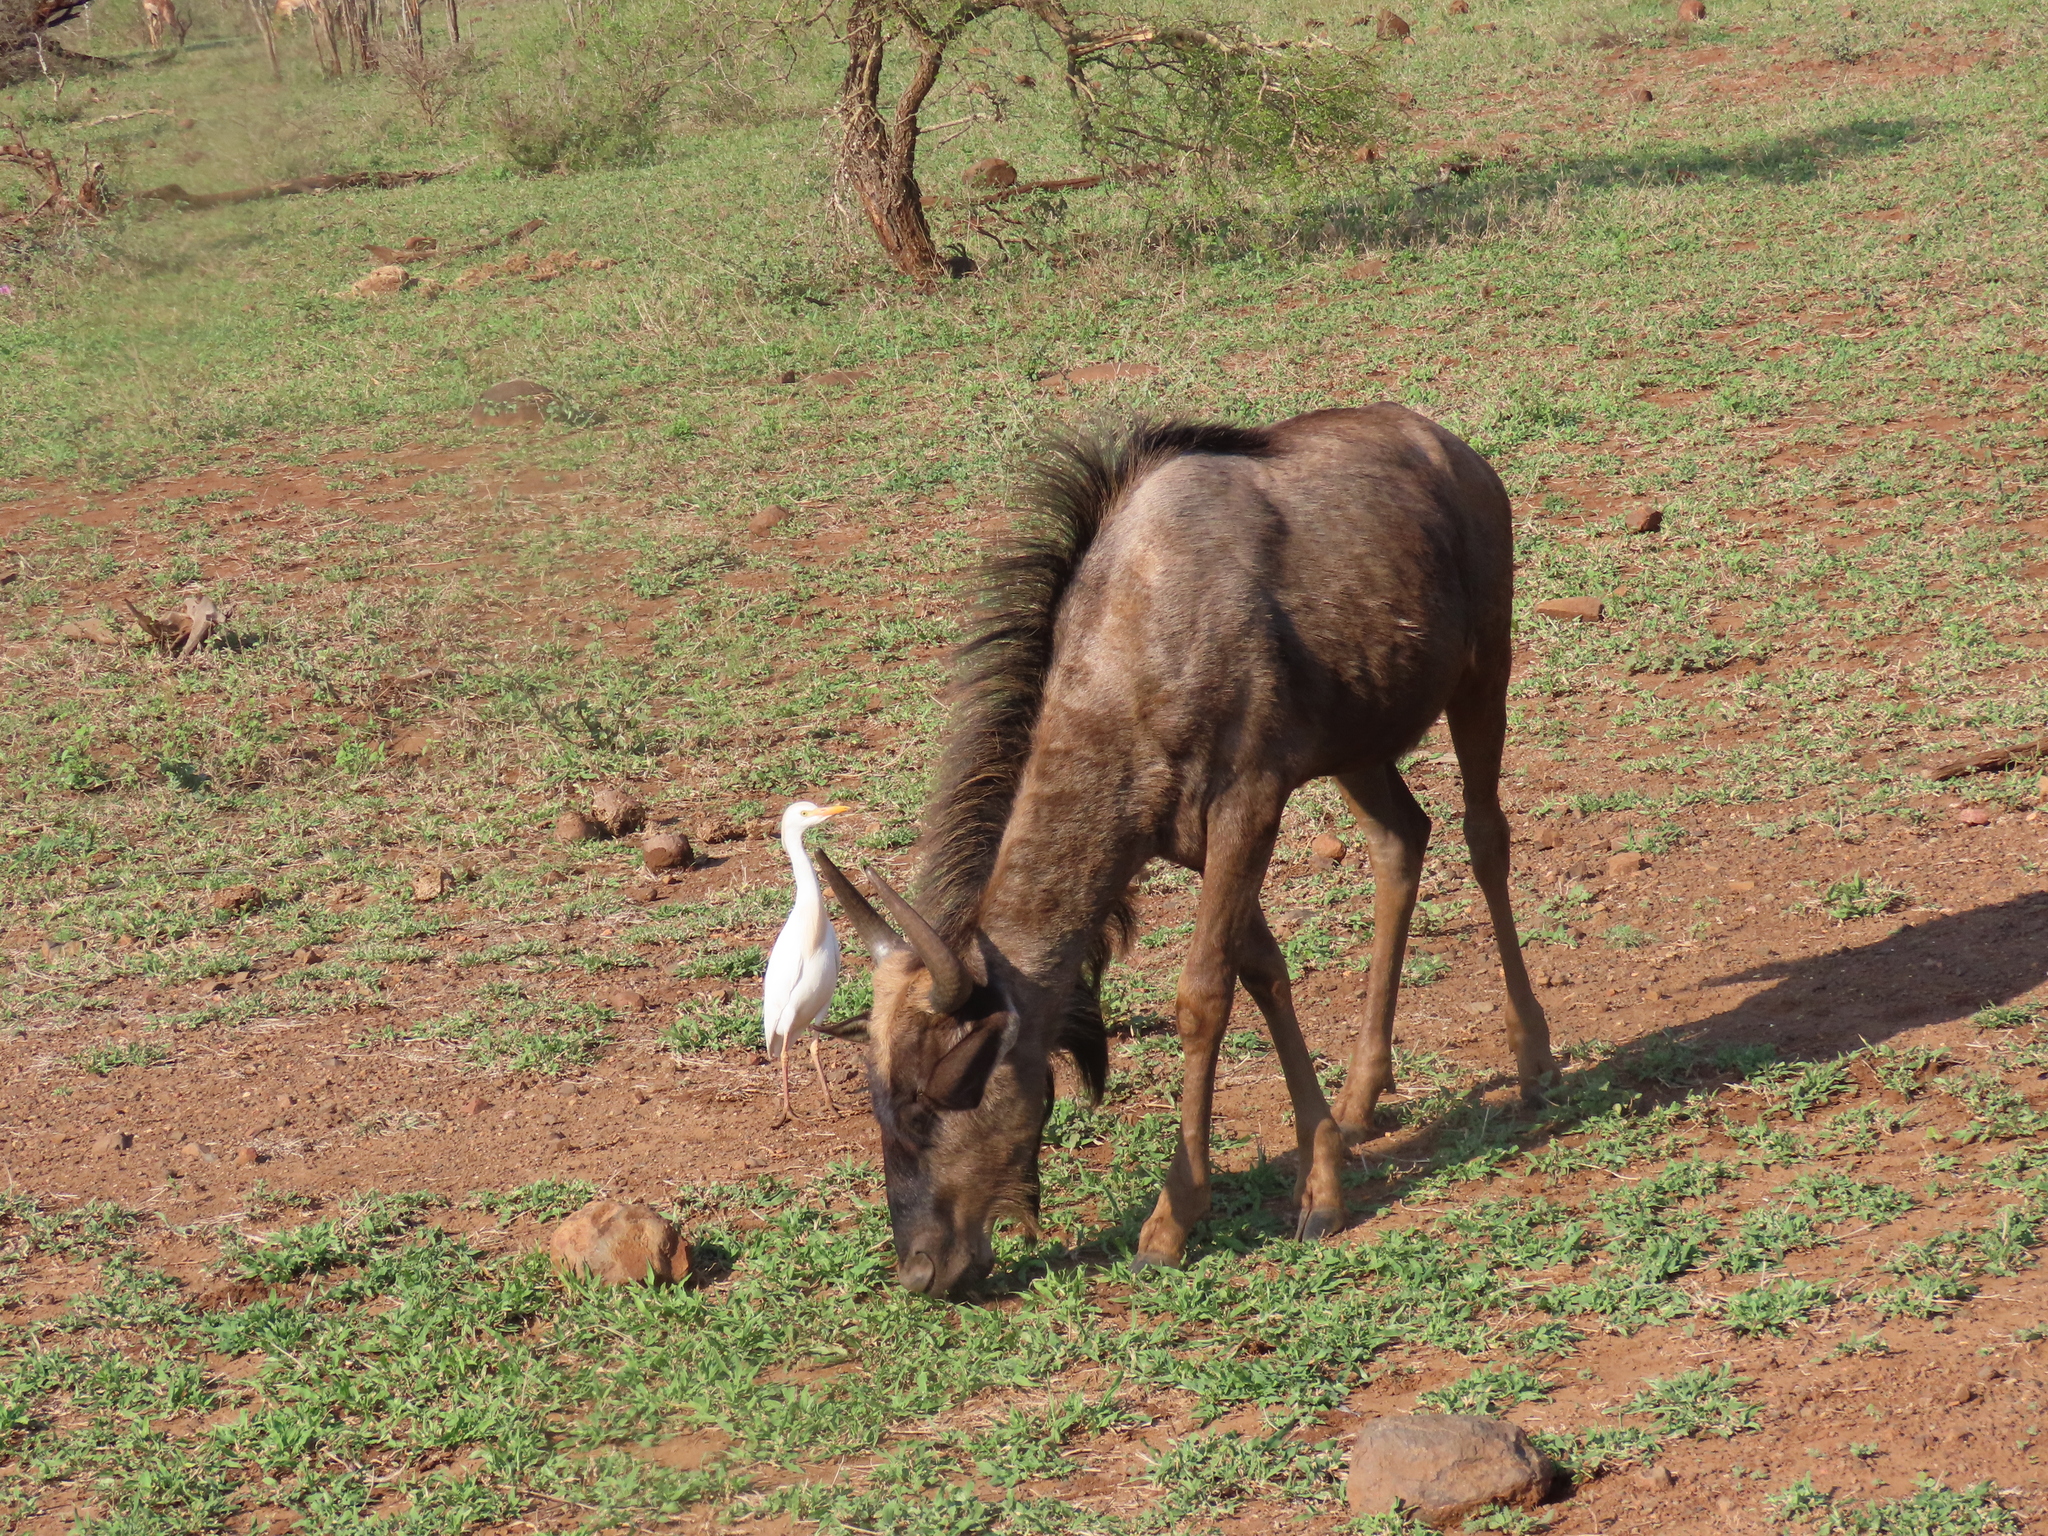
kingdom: Animalia
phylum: Chordata
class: Aves
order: Pelecaniformes
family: Ardeidae
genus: Bubulcus
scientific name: Bubulcus ibis
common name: Cattle egret
